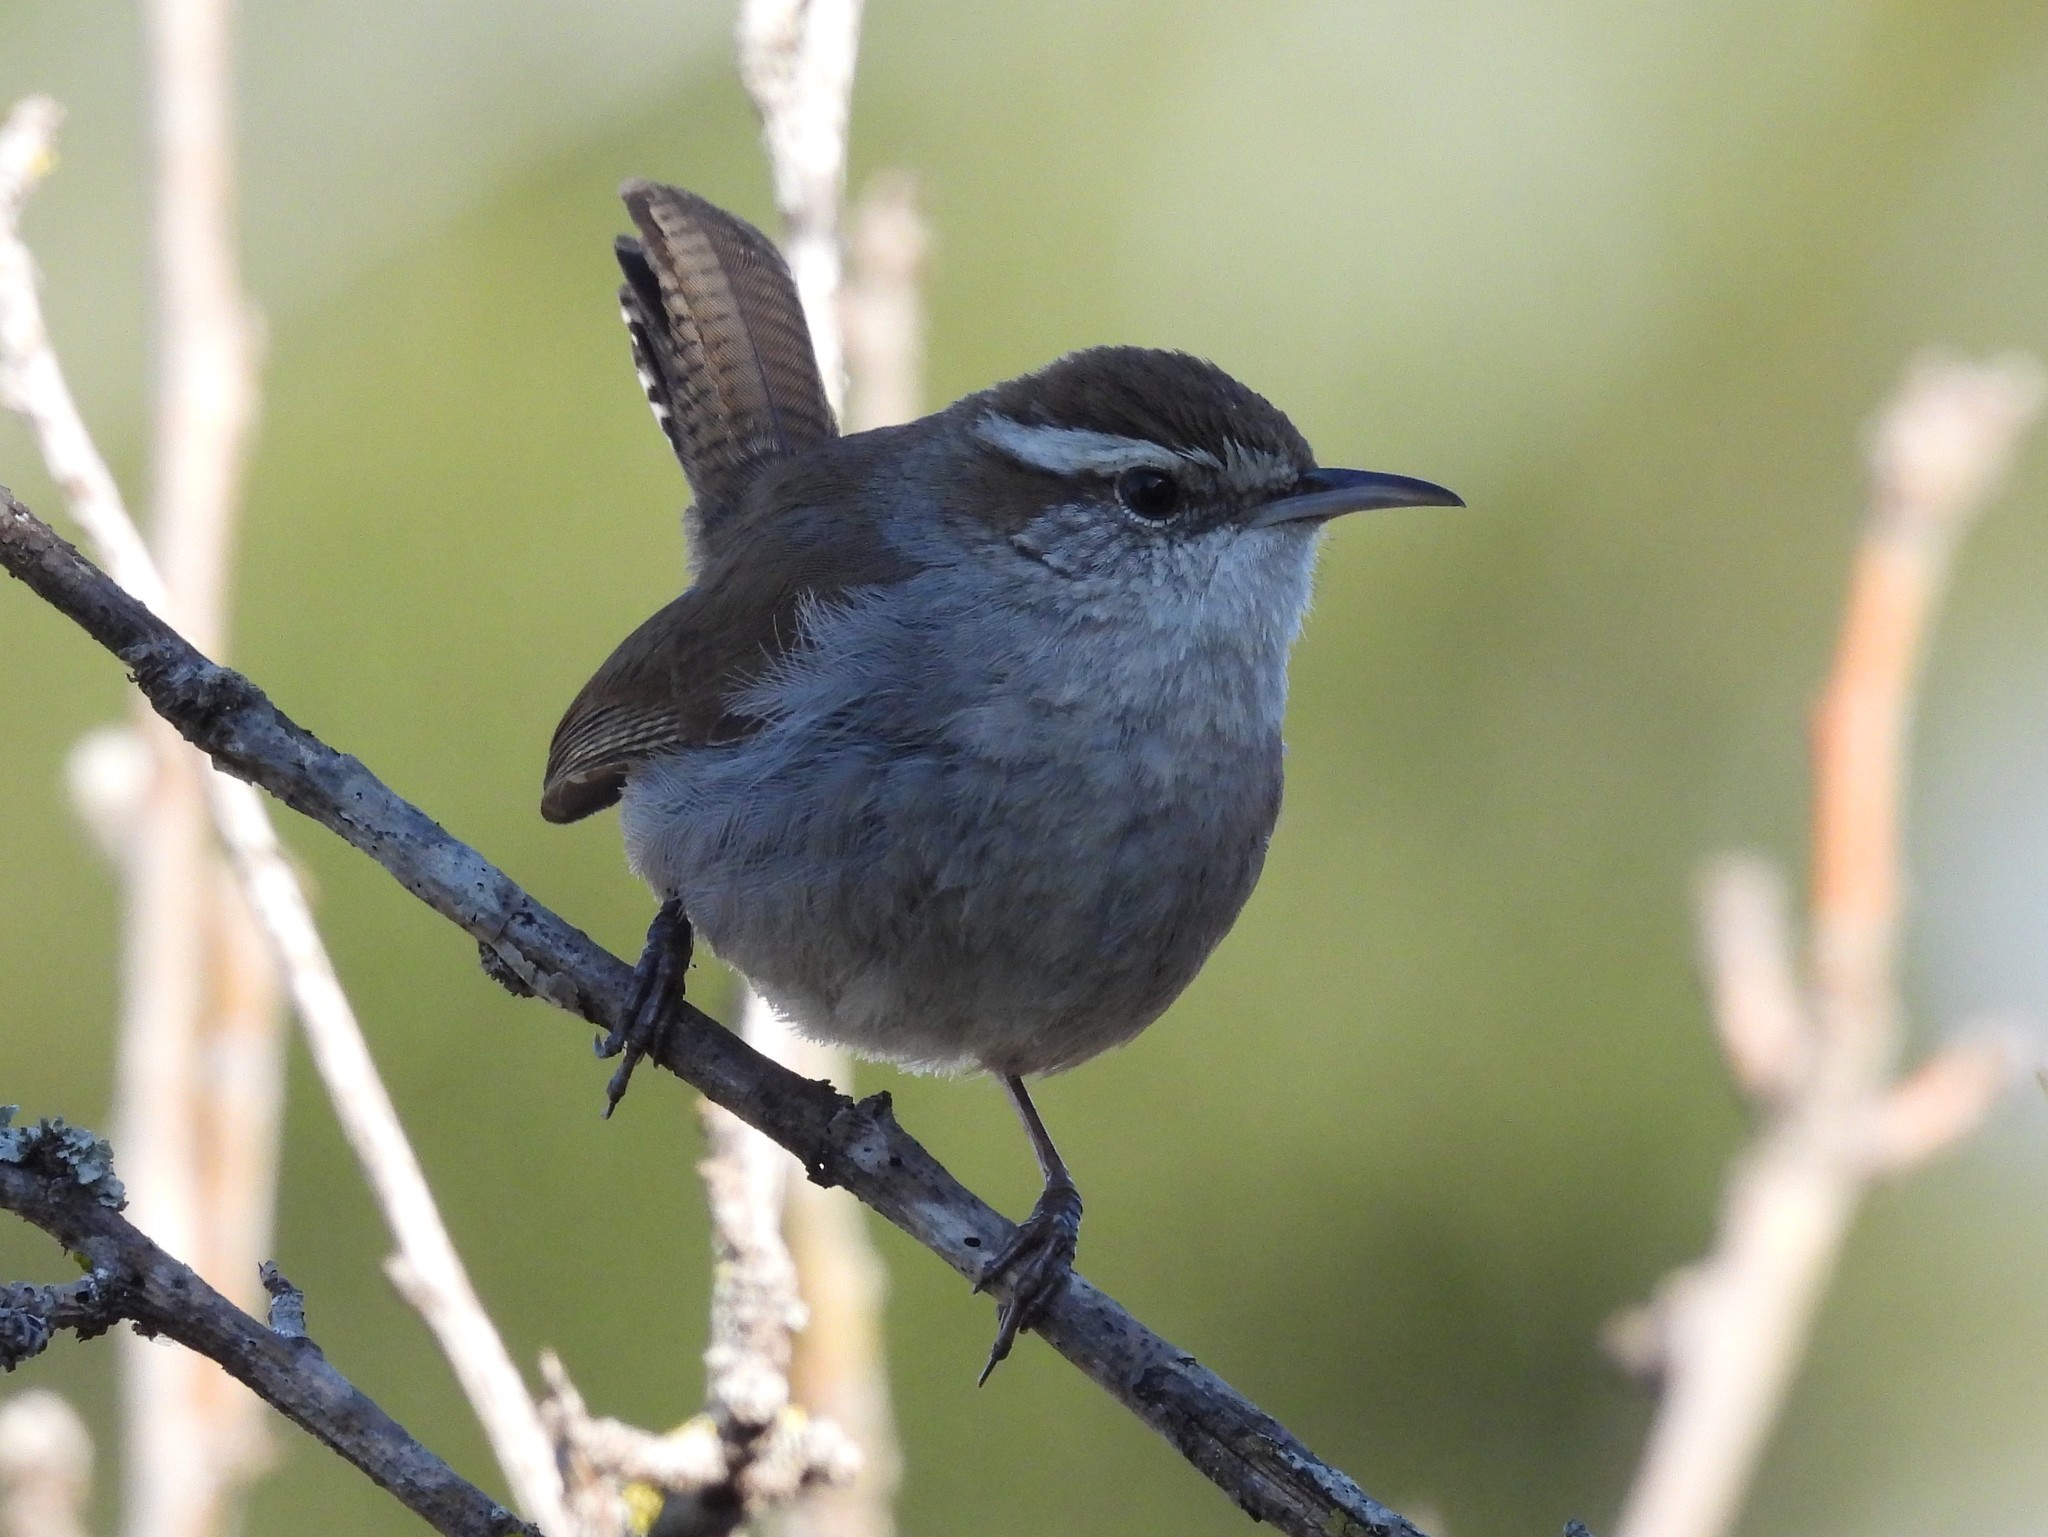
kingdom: Animalia
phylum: Chordata
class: Aves
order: Passeriformes
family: Troglodytidae
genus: Thryomanes
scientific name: Thryomanes bewickii
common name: Bewick's wren
